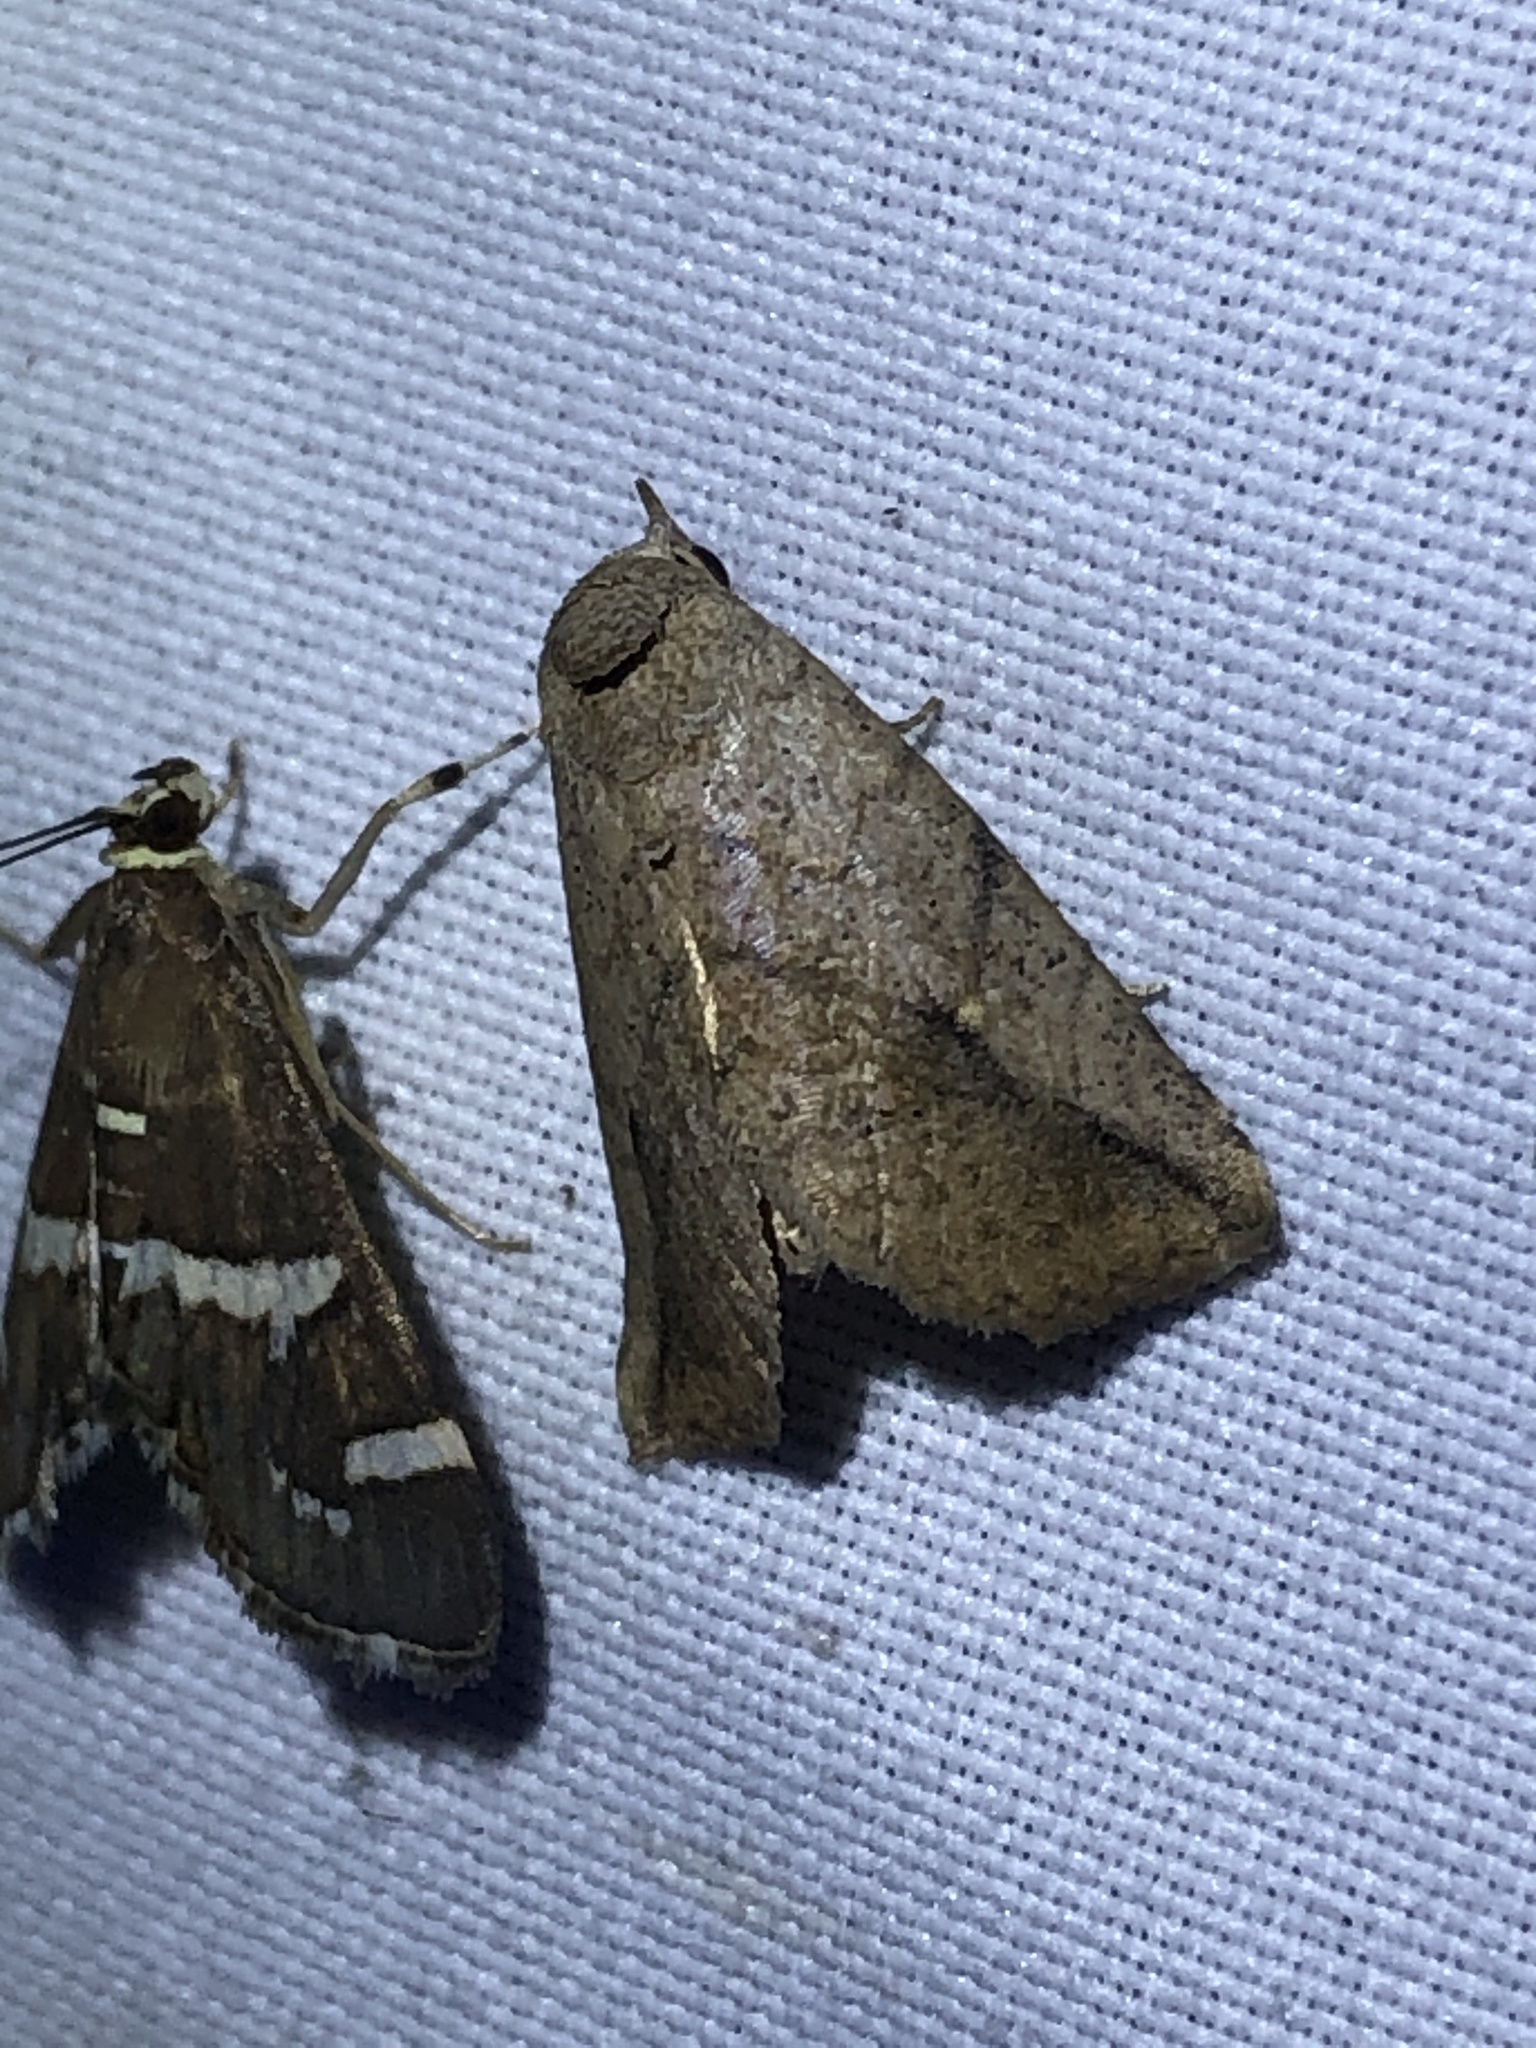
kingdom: Animalia
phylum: Arthropoda
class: Insecta
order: Lepidoptera
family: Erebidae
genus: Isogona
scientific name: Isogona snowi
